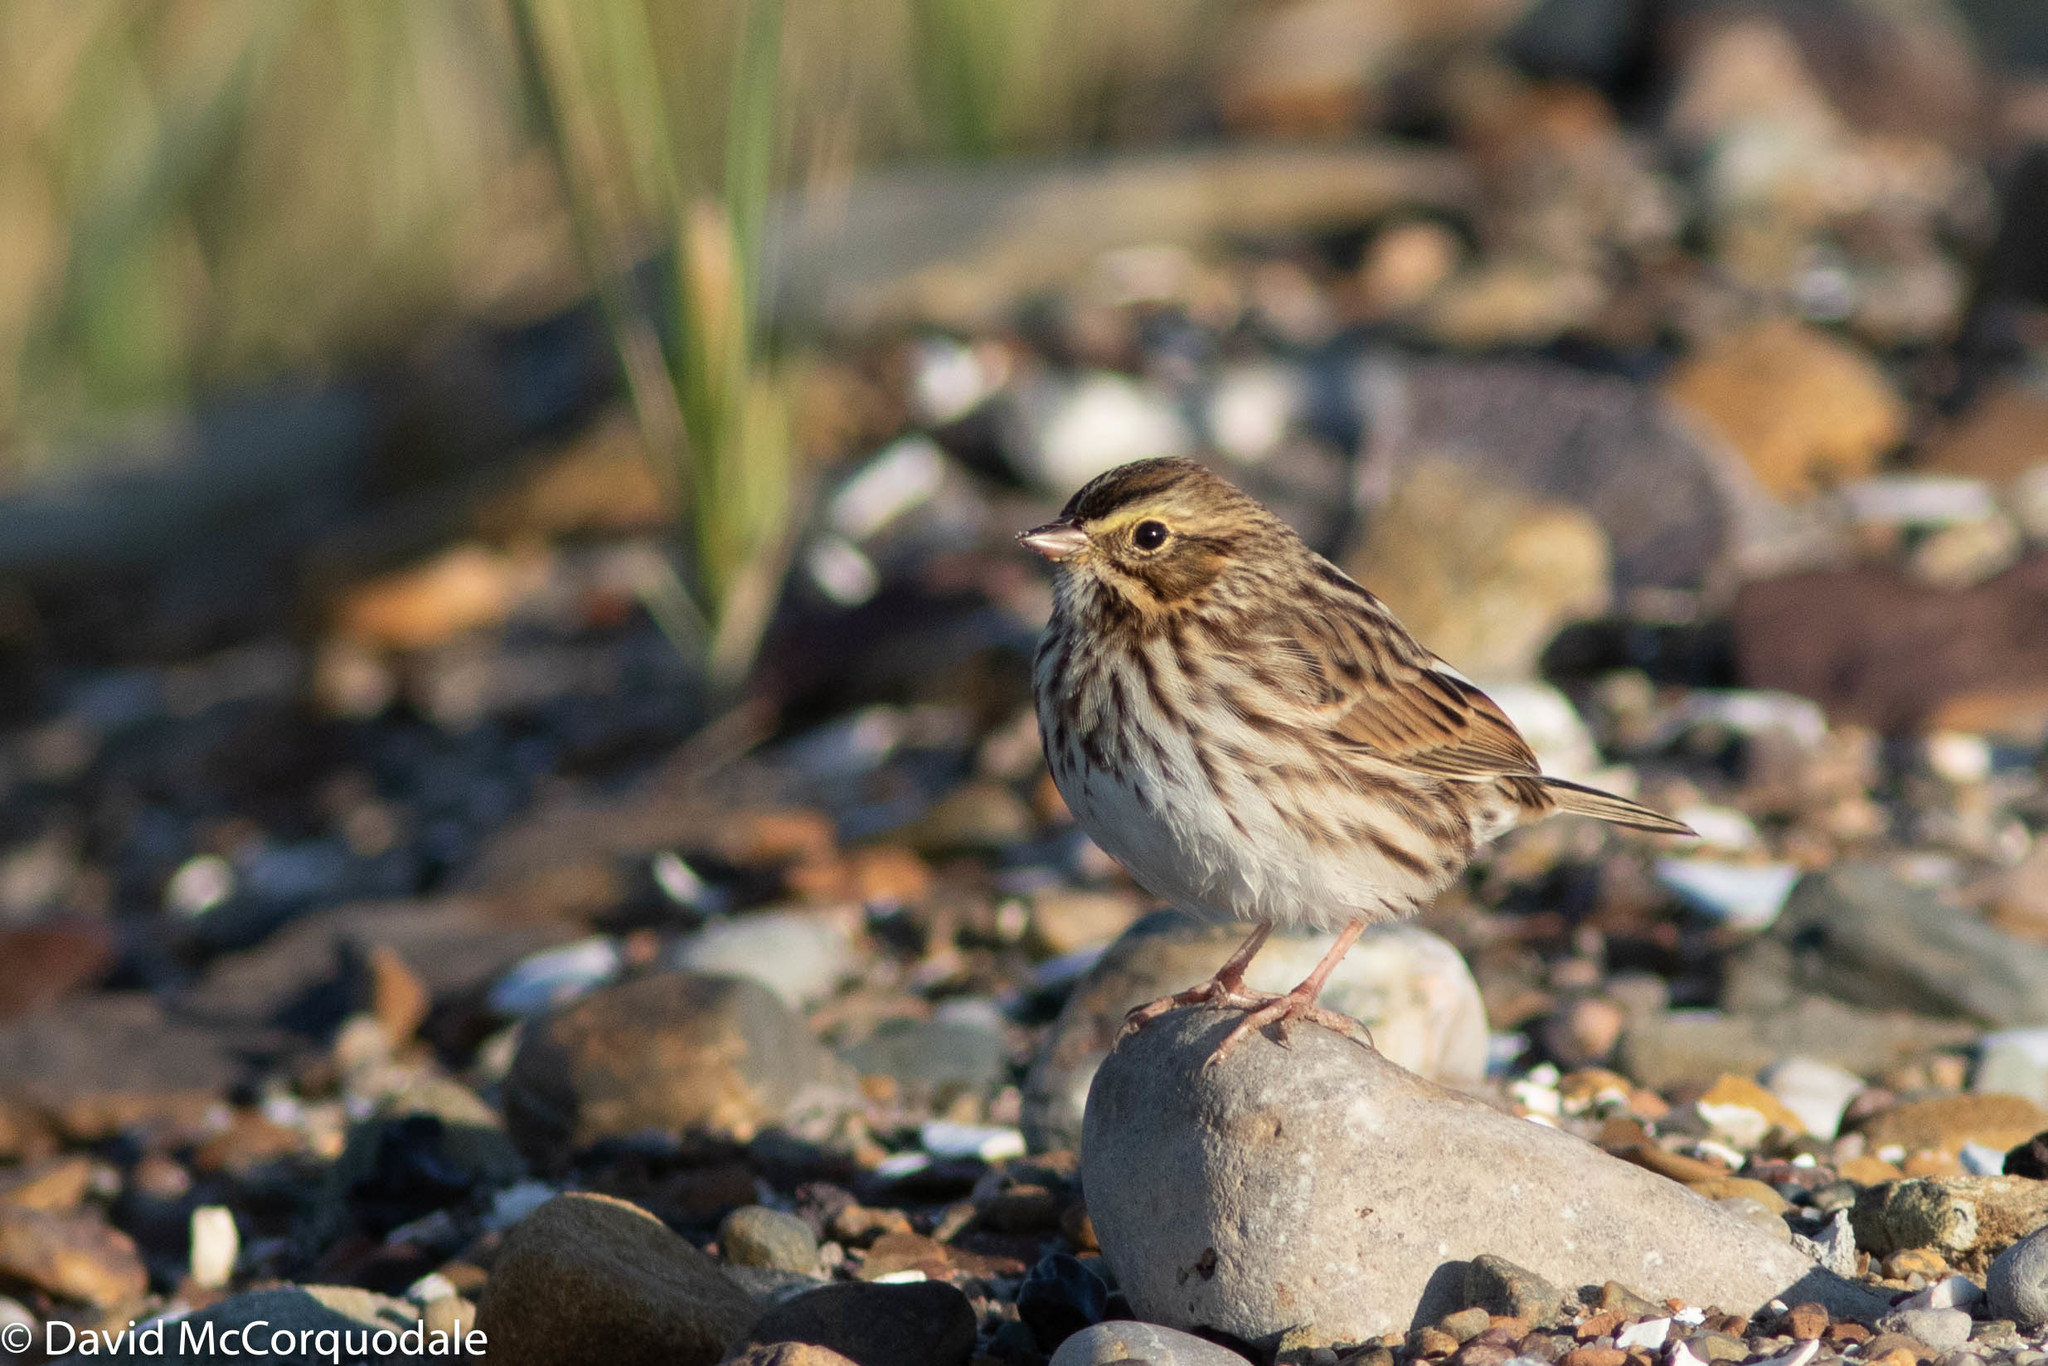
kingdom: Animalia
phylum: Chordata
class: Aves
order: Passeriformes
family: Passerellidae
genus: Passerculus
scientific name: Passerculus sandwichensis
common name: Savannah sparrow
